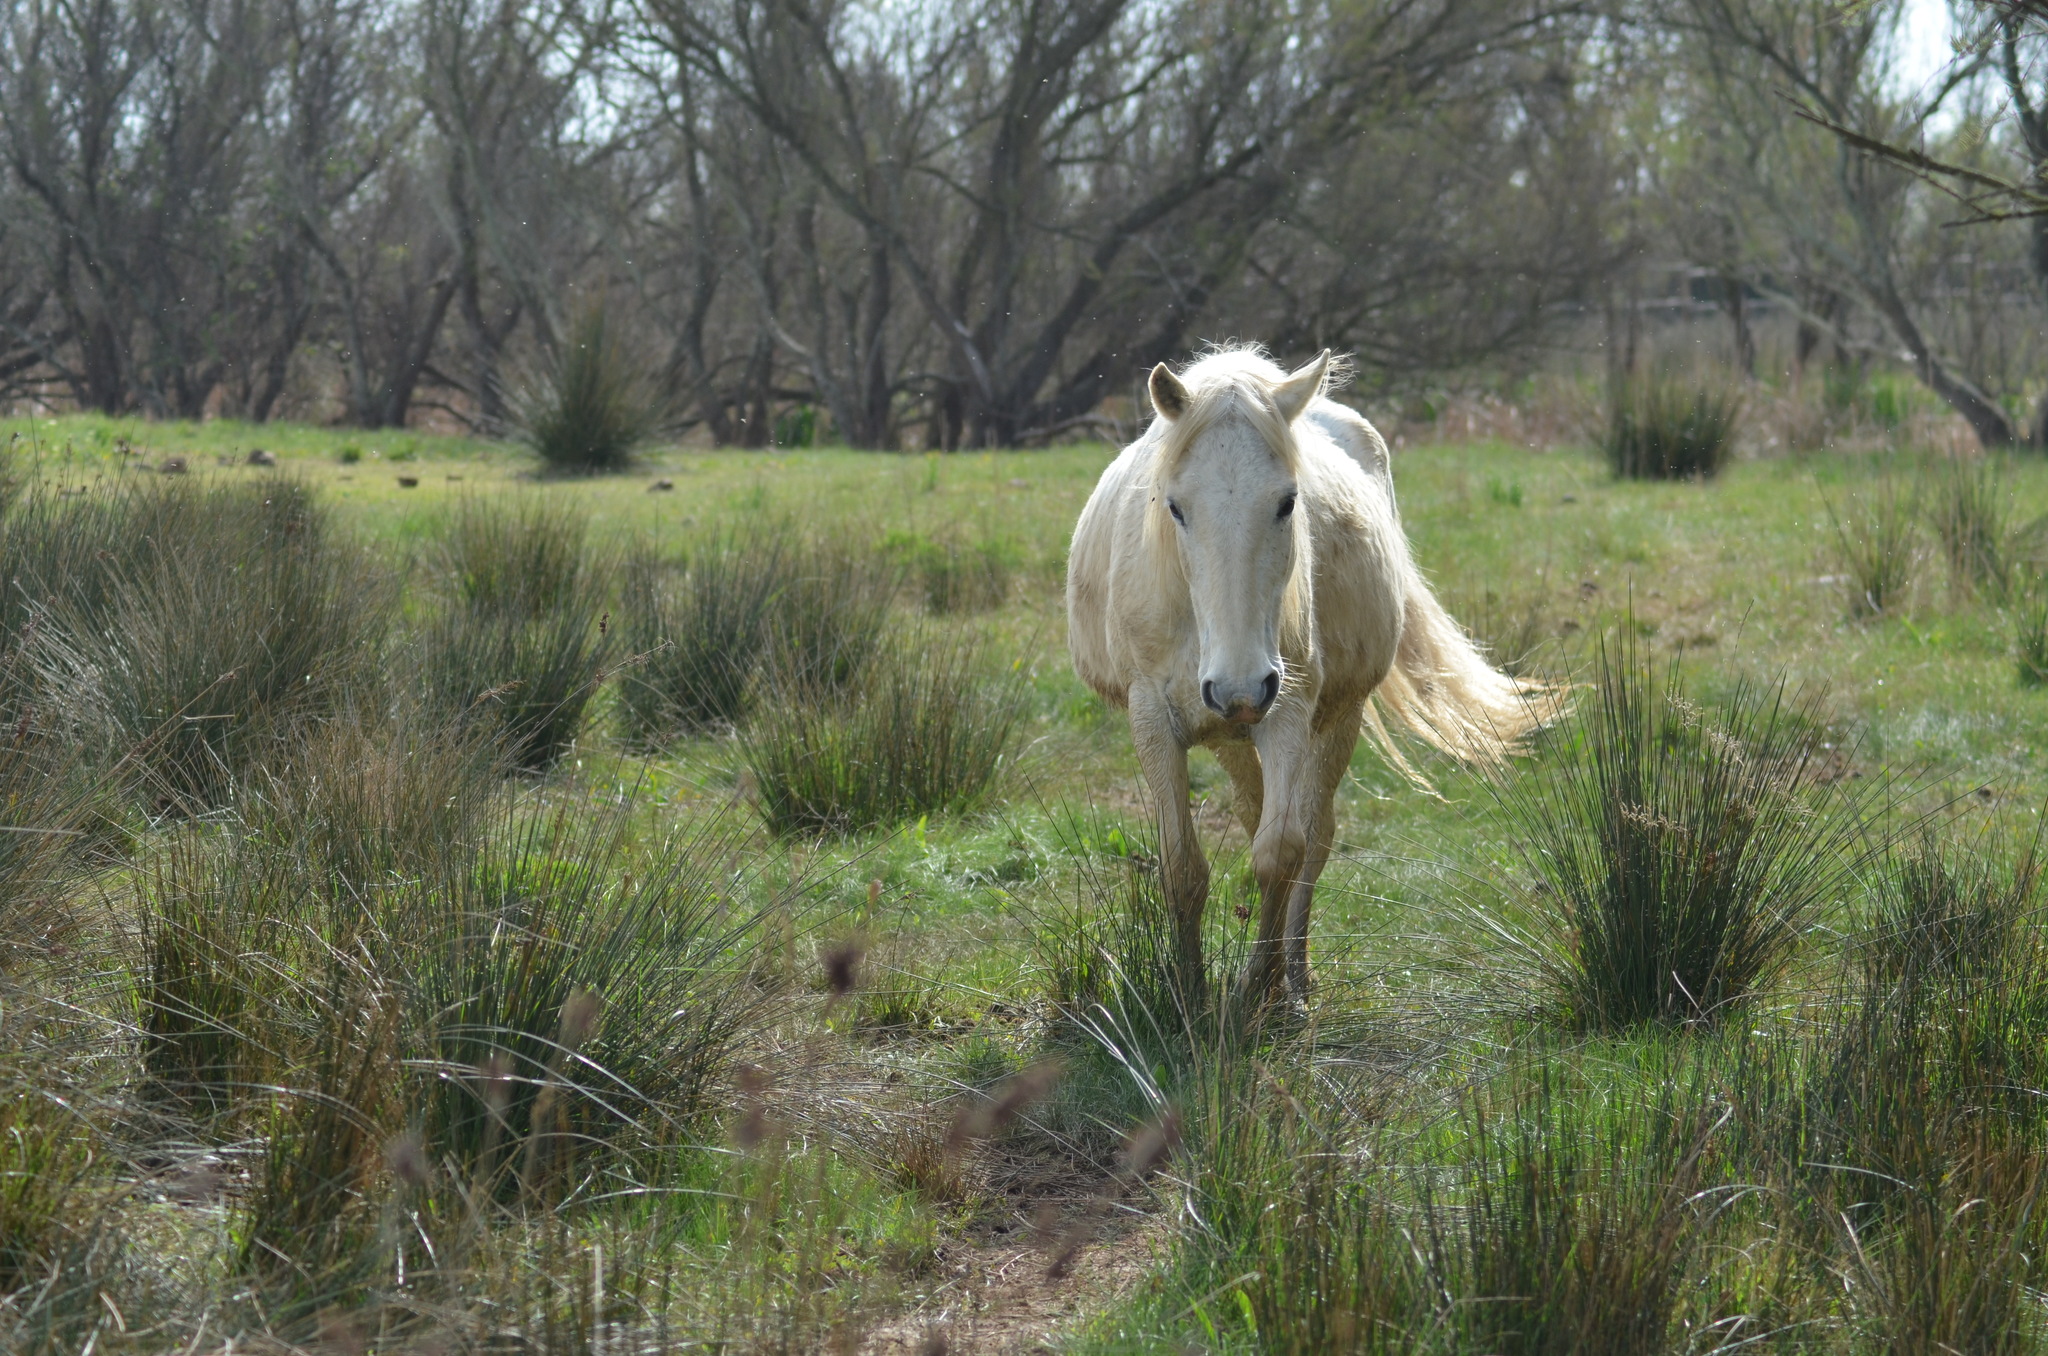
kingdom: Animalia
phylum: Chordata
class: Mammalia
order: Perissodactyla
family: Equidae
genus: Equus
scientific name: Equus caballus
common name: Horse
